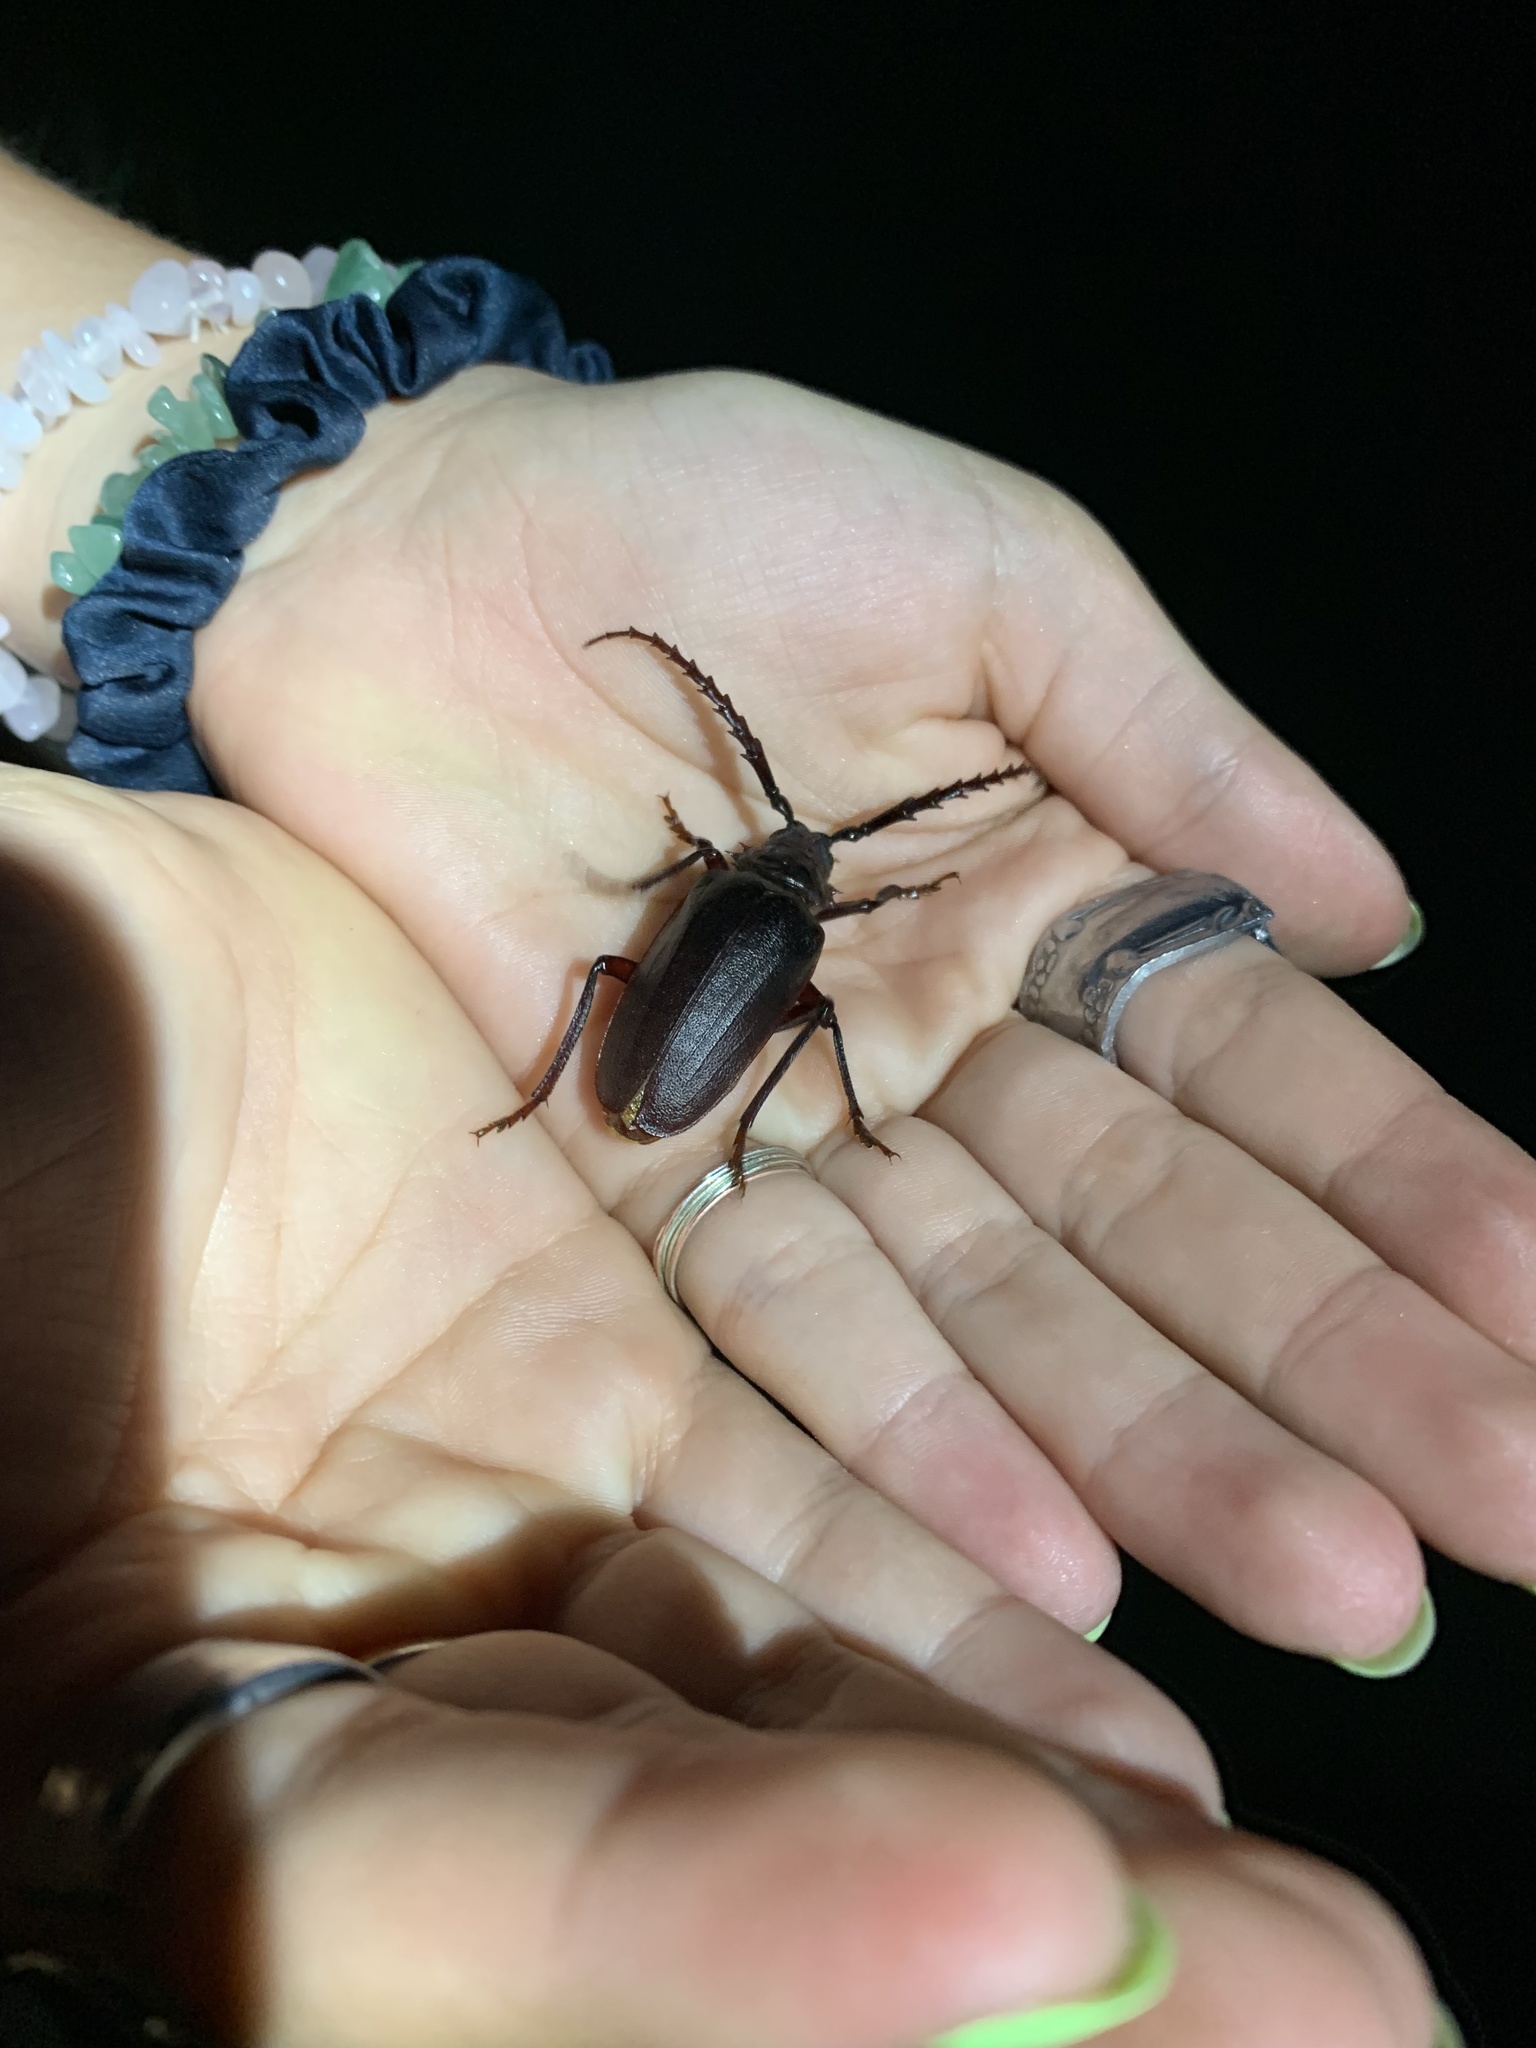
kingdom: Animalia
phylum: Arthropoda
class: Insecta
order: Coleoptera
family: Cerambycidae
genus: Prionus
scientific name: Prionus heroicus
